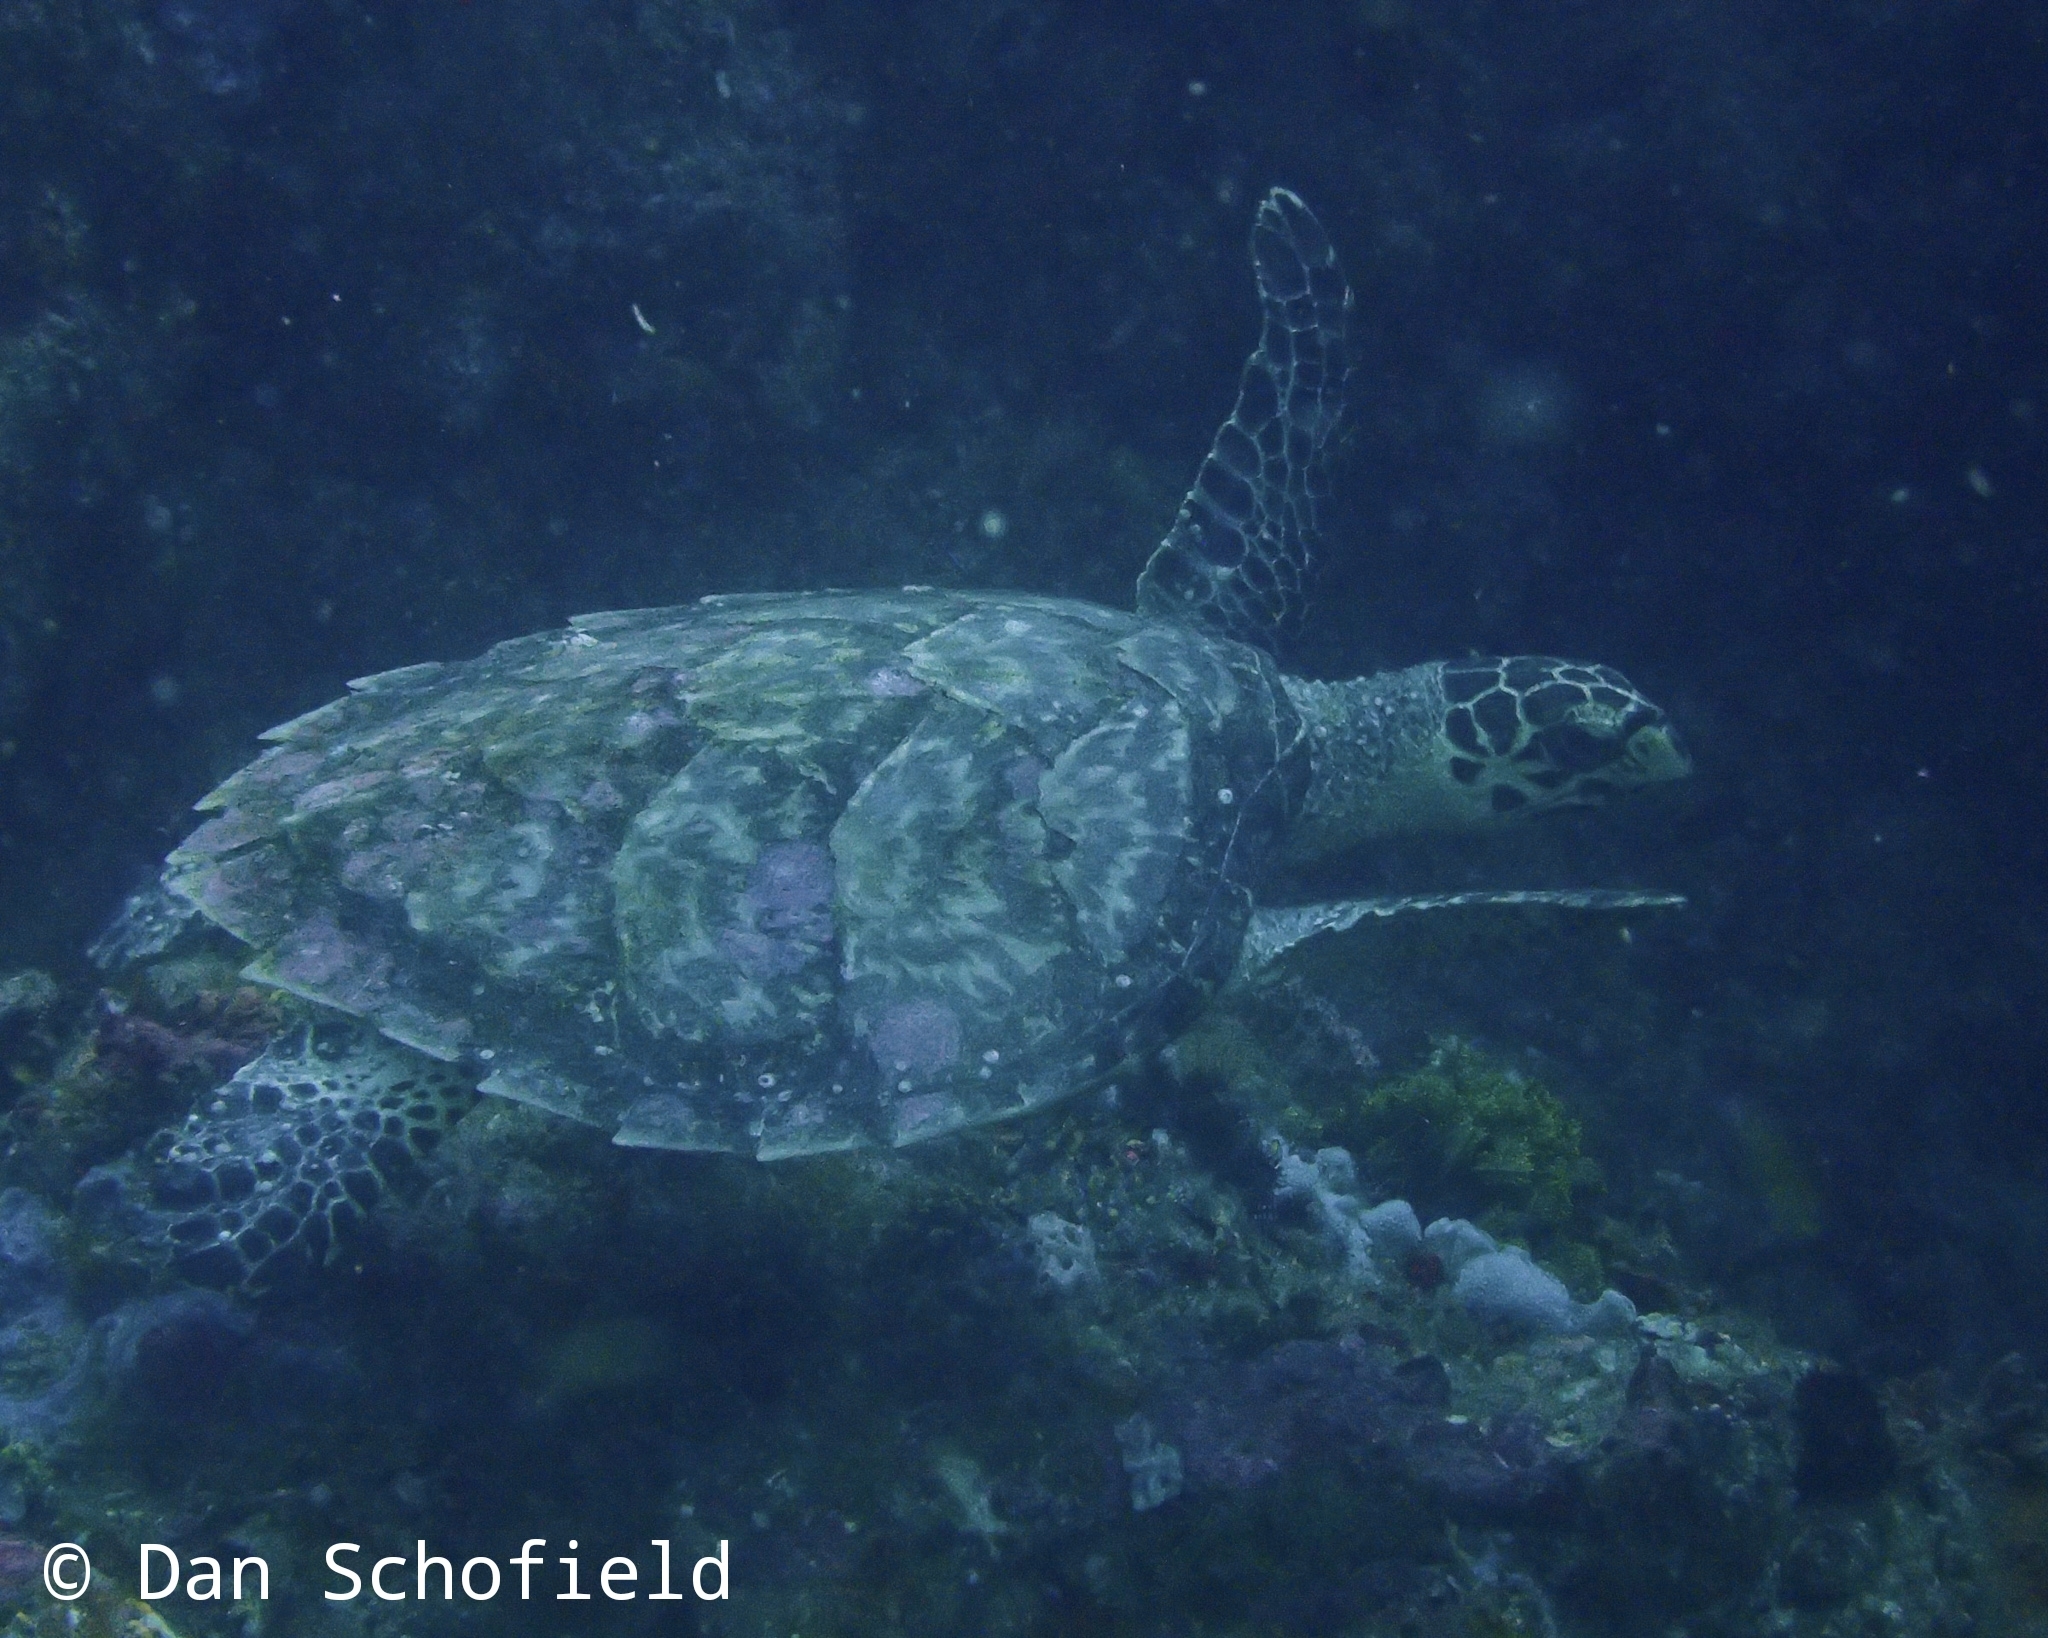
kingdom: Animalia
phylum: Chordata
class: Testudines
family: Cheloniidae
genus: Eretmochelys
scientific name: Eretmochelys imbricata
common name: Hawksbill turtle
